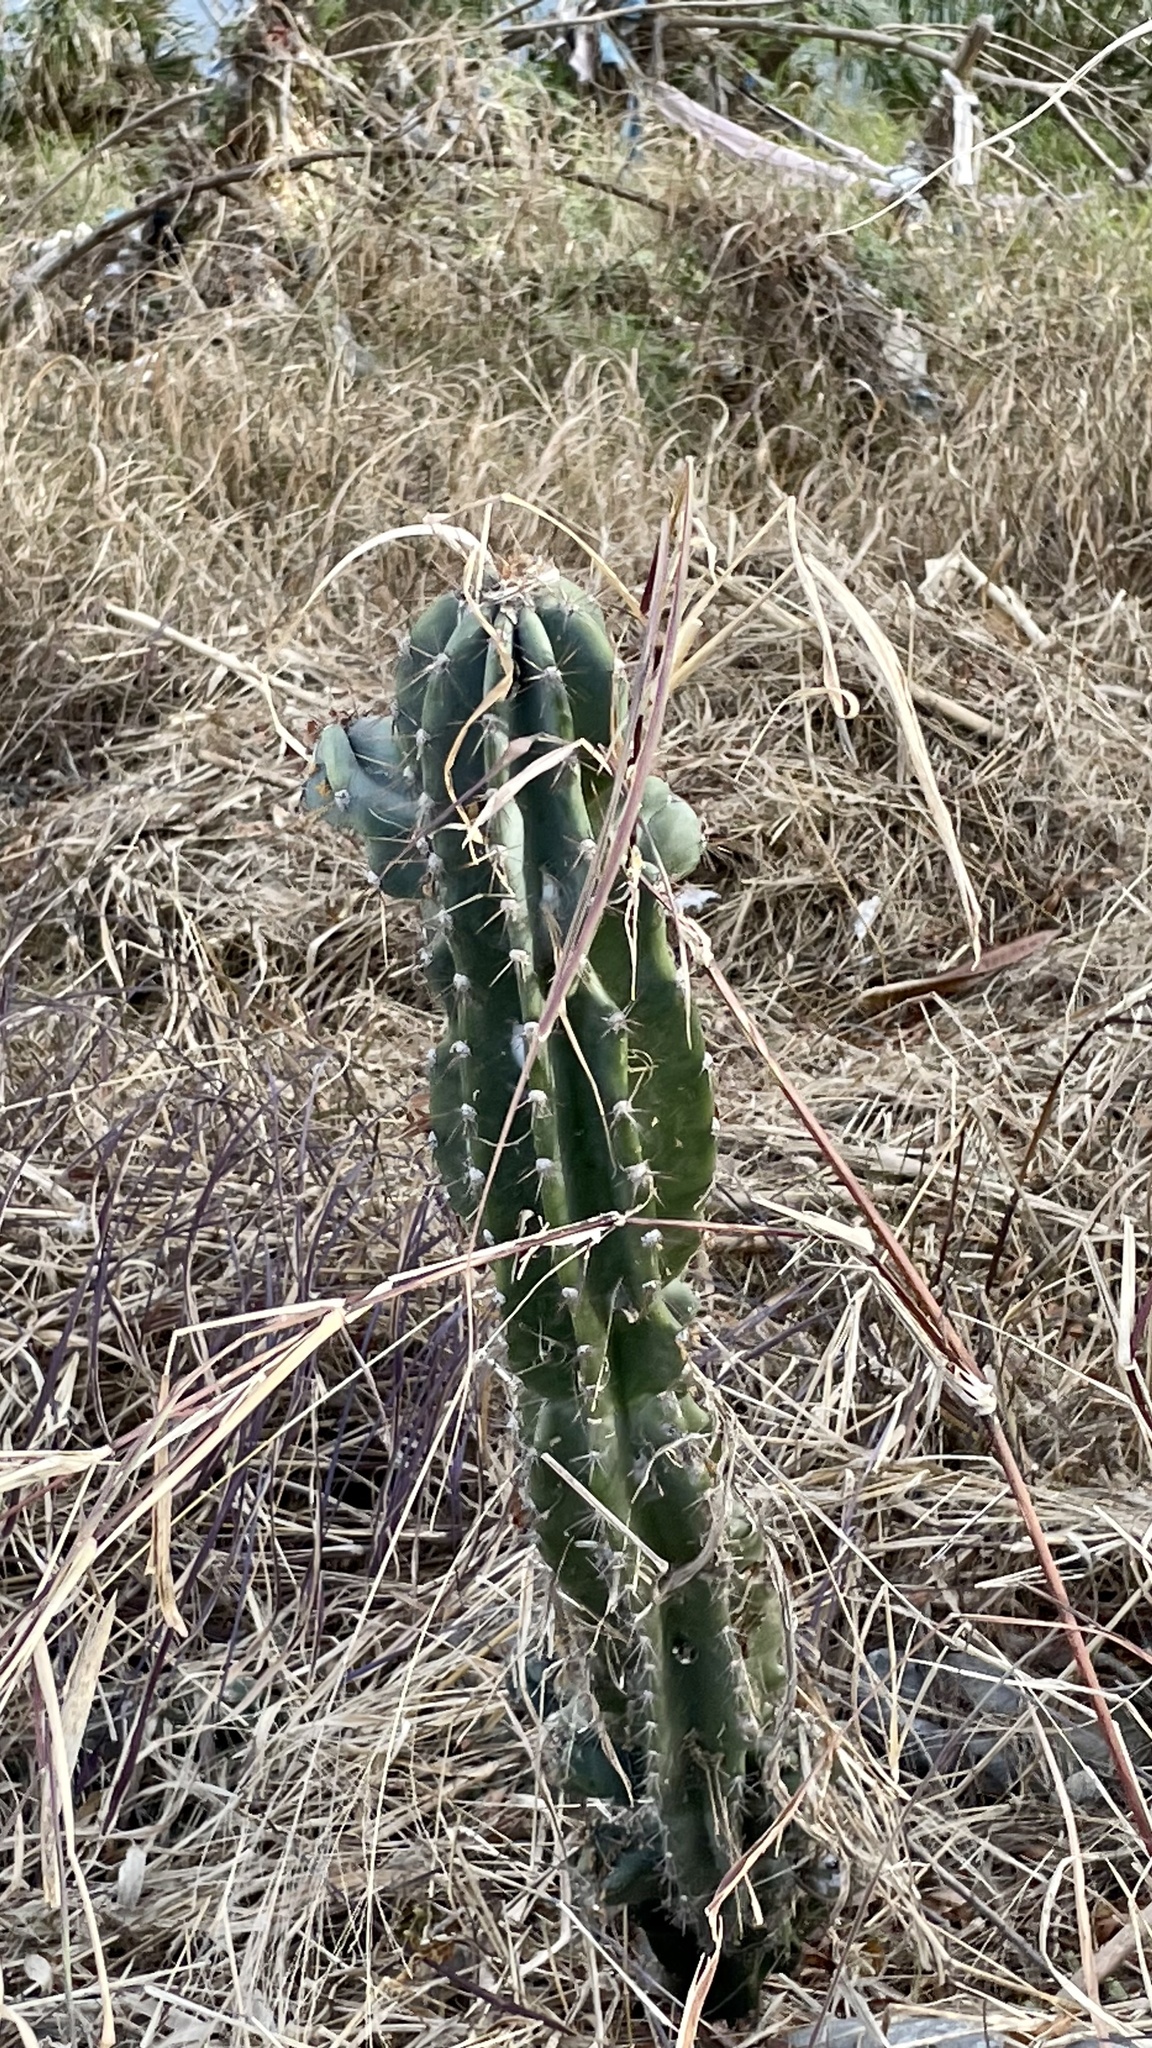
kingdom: Plantae
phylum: Tracheophyta
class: Magnoliopsida
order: Caryophyllales
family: Cactaceae
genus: Cereus
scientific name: Cereus hildmannianus
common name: Hedge cactus
